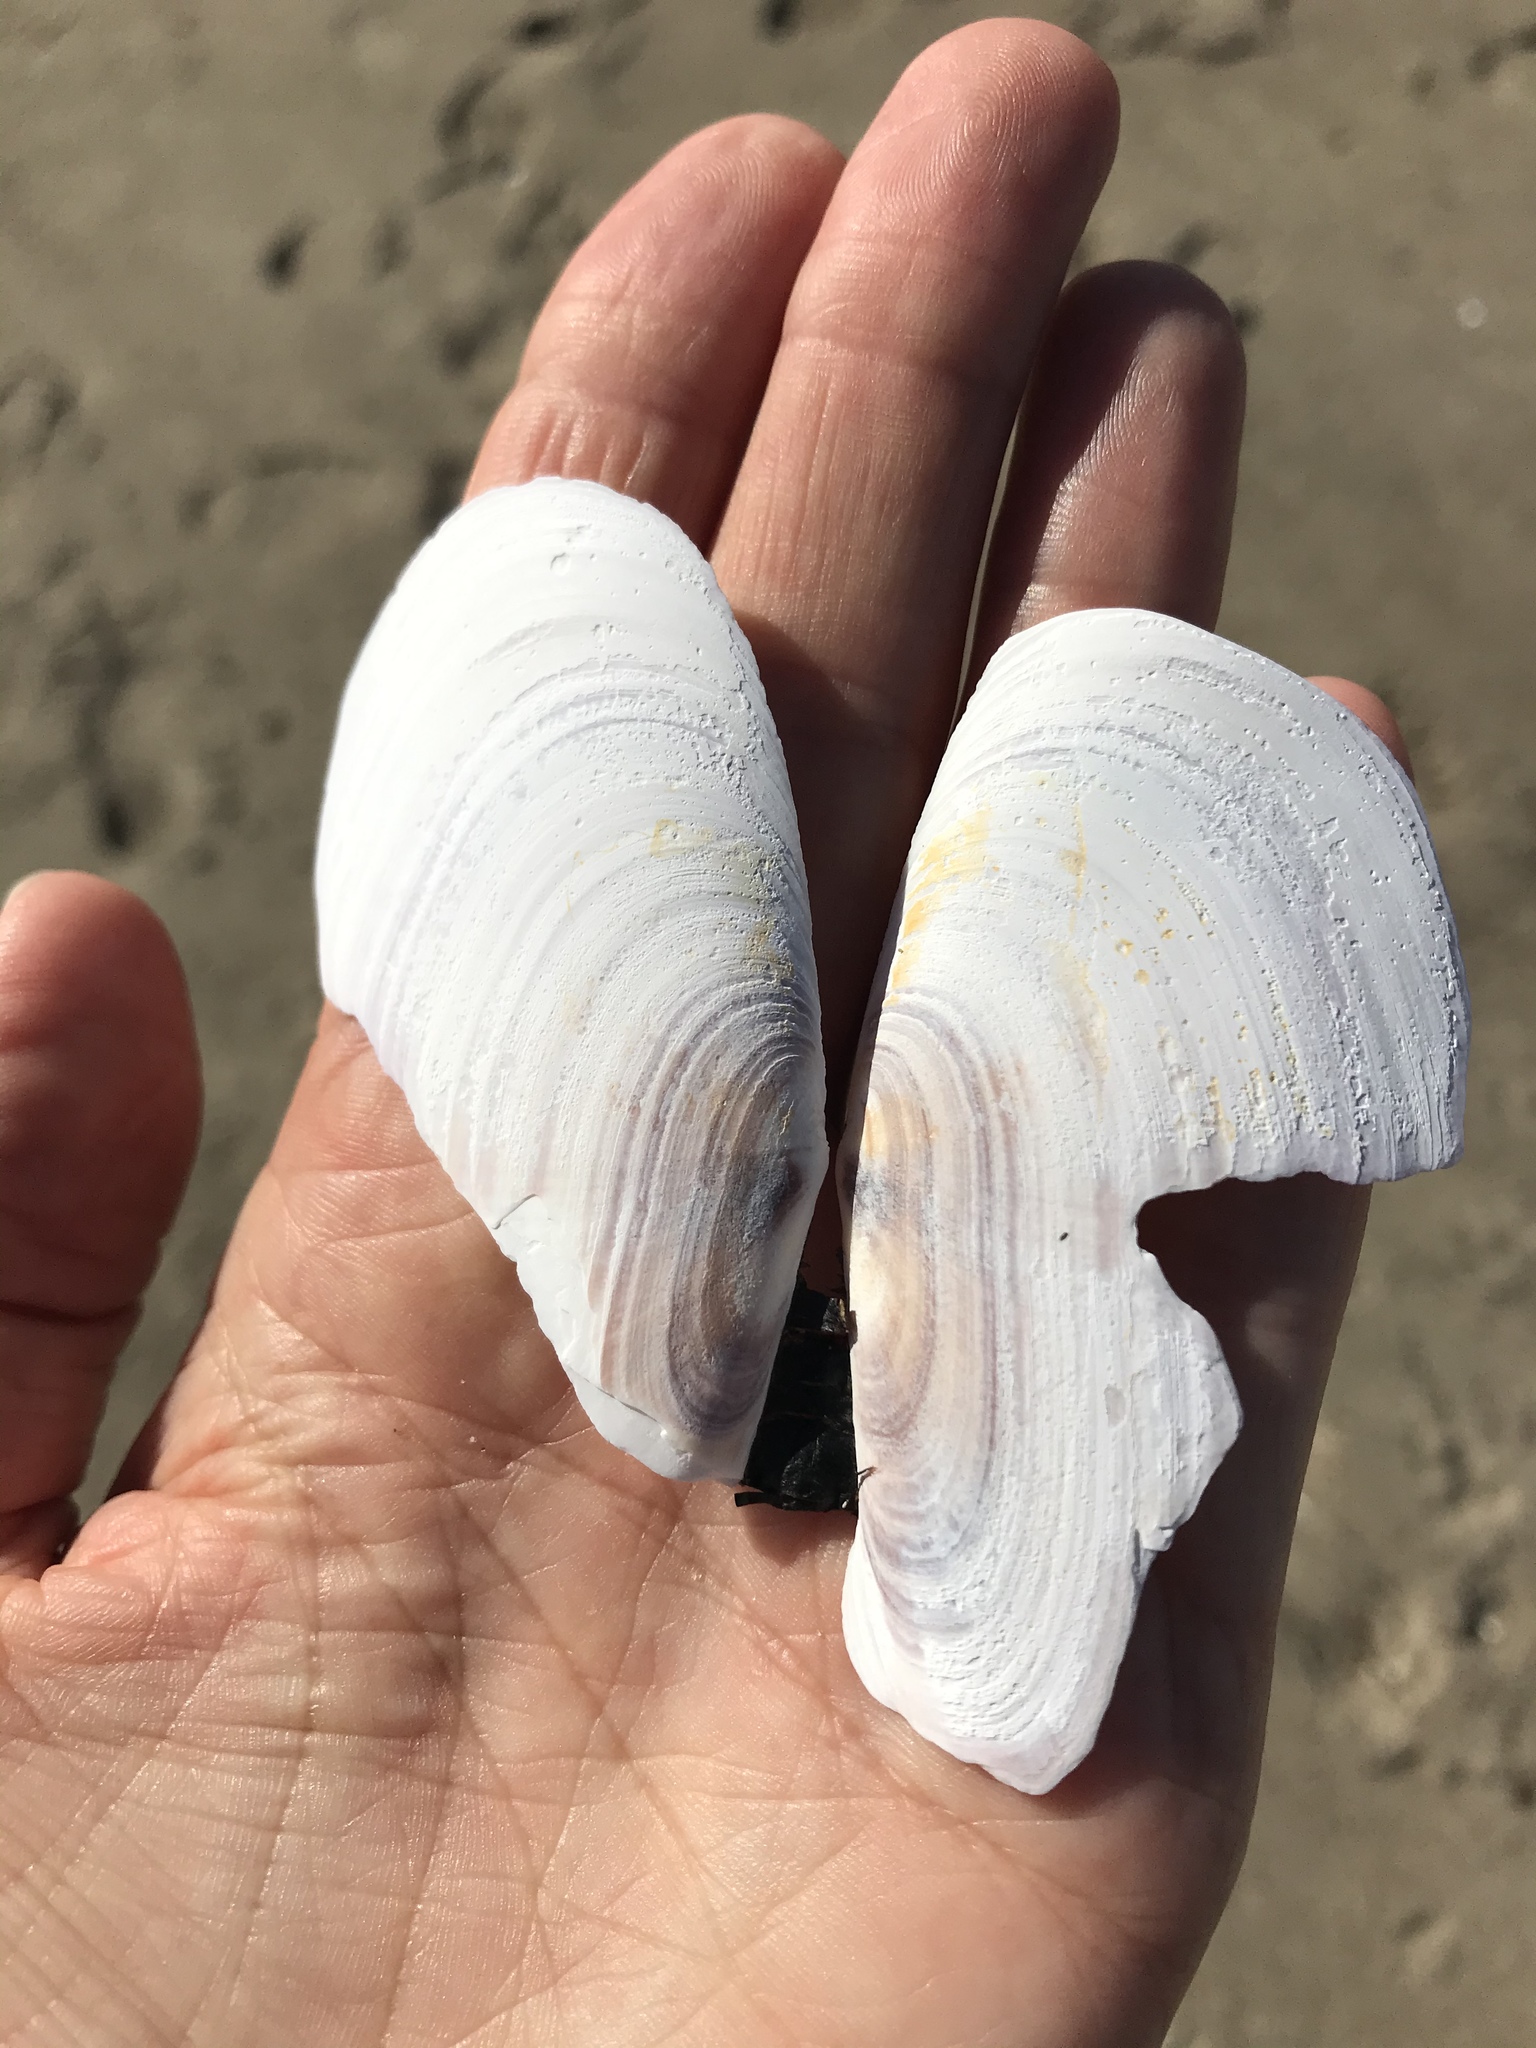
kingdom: Animalia
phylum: Mollusca
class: Bivalvia
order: Adapedonta
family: Pharidae
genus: Siliqua
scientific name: Siliqua patula
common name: Pacific razor clam
